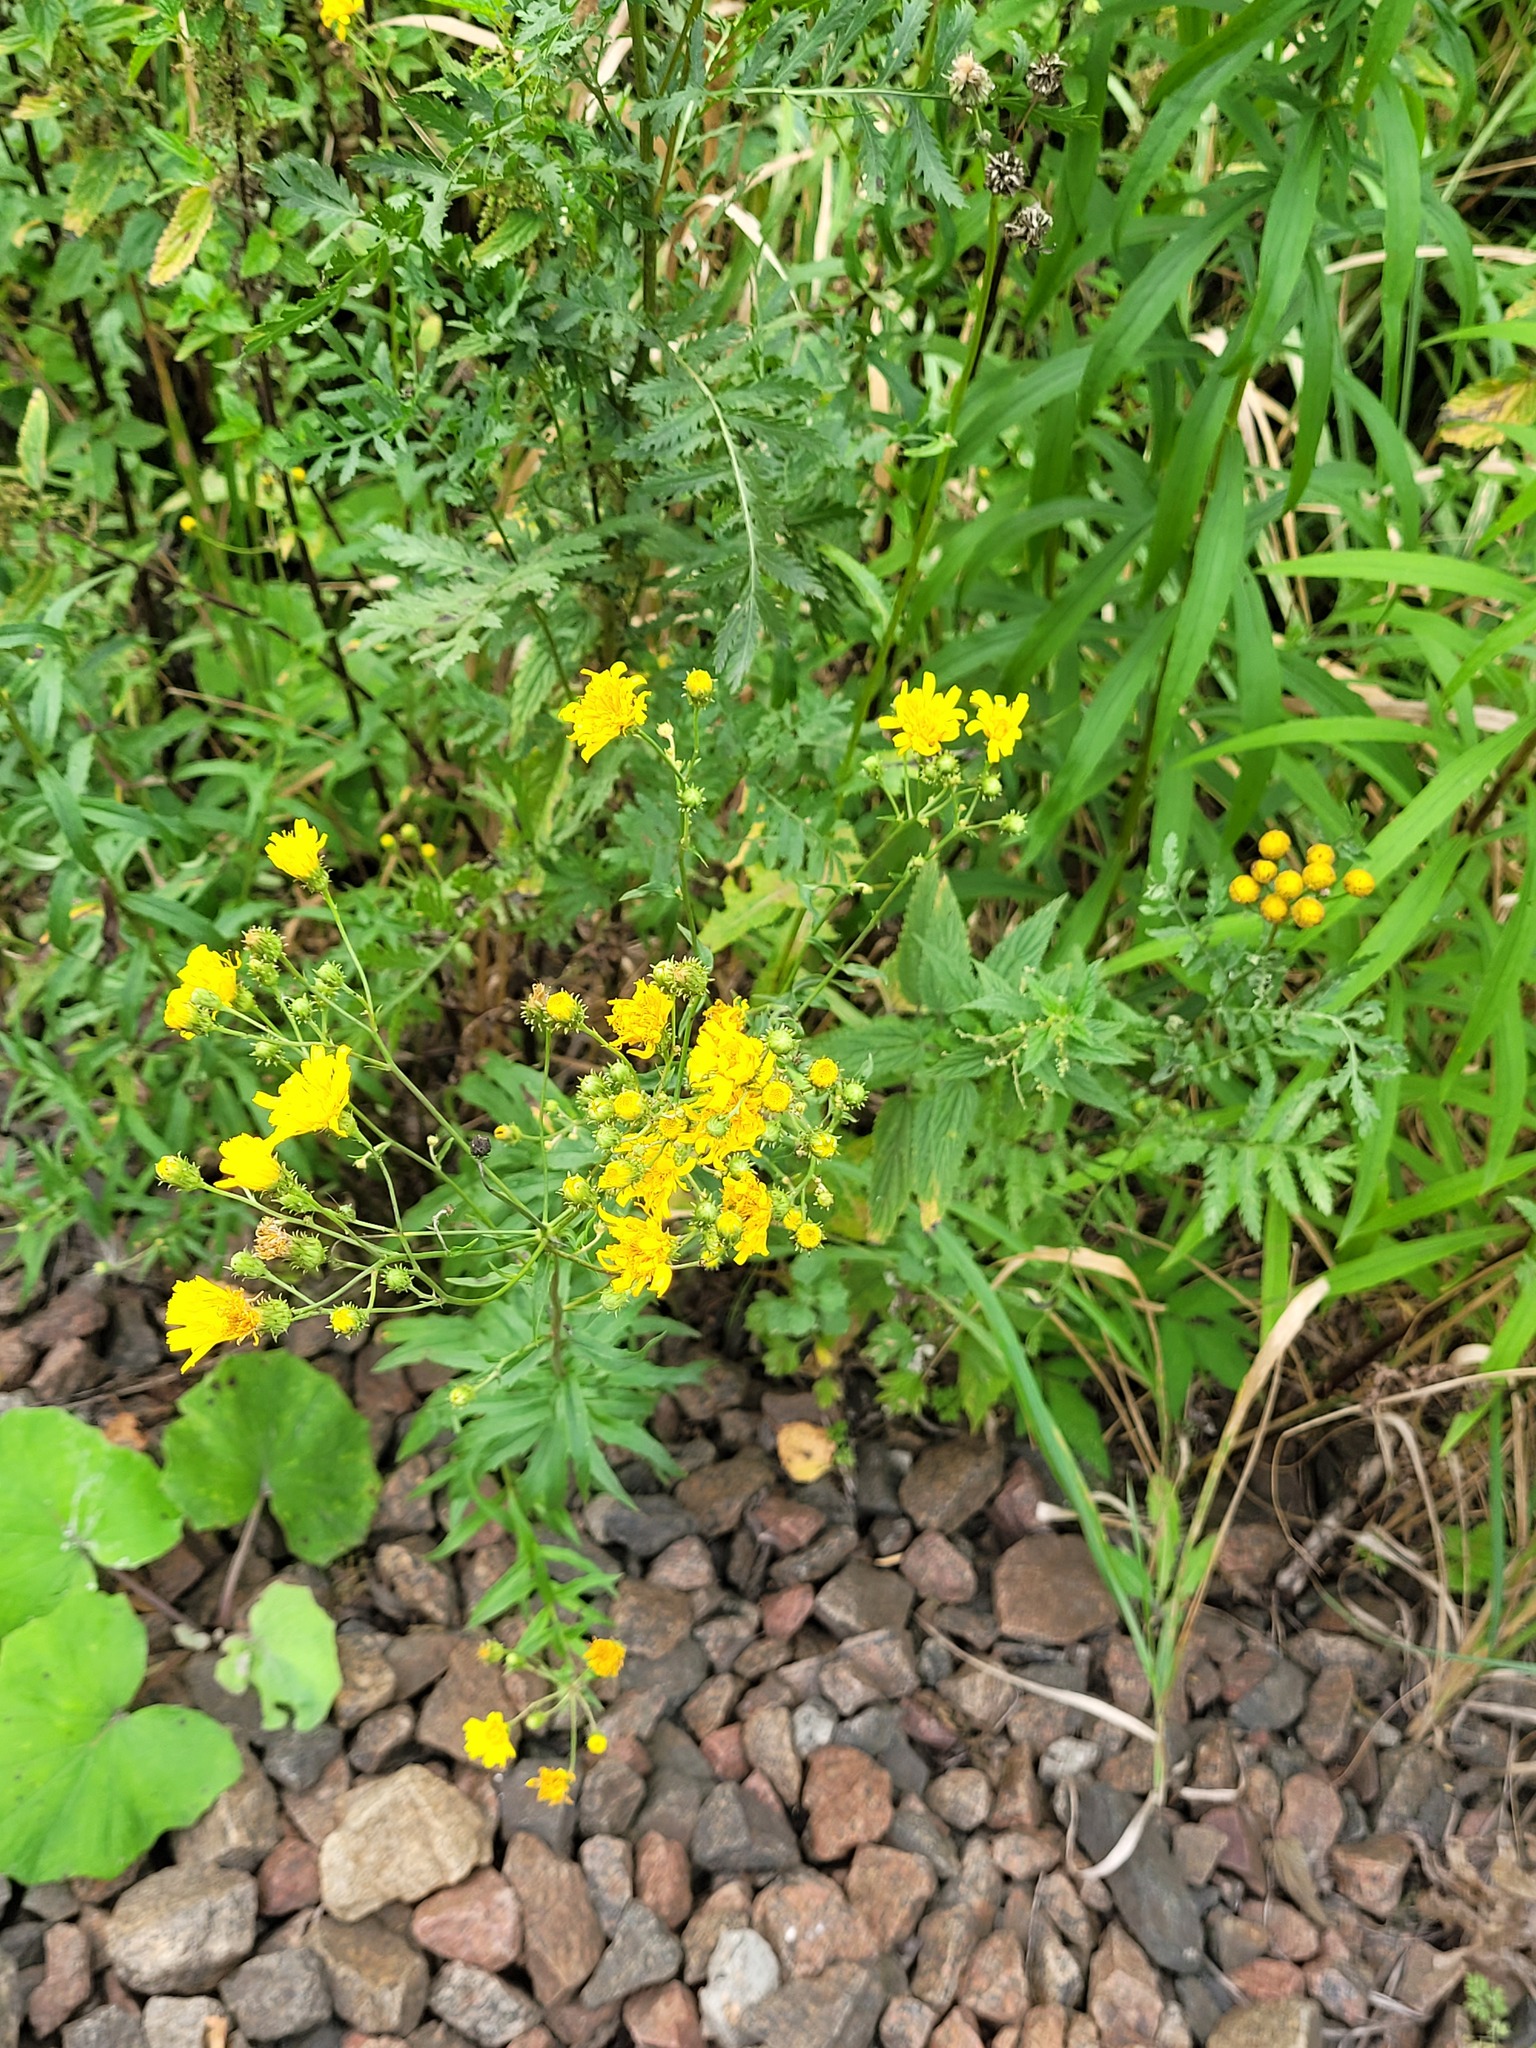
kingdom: Plantae
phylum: Tracheophyta
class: Magnoliopsida
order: Asterales
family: Asteraceae
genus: Hieracium
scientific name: Hieracium umbellatum
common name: Northern hawkweed
